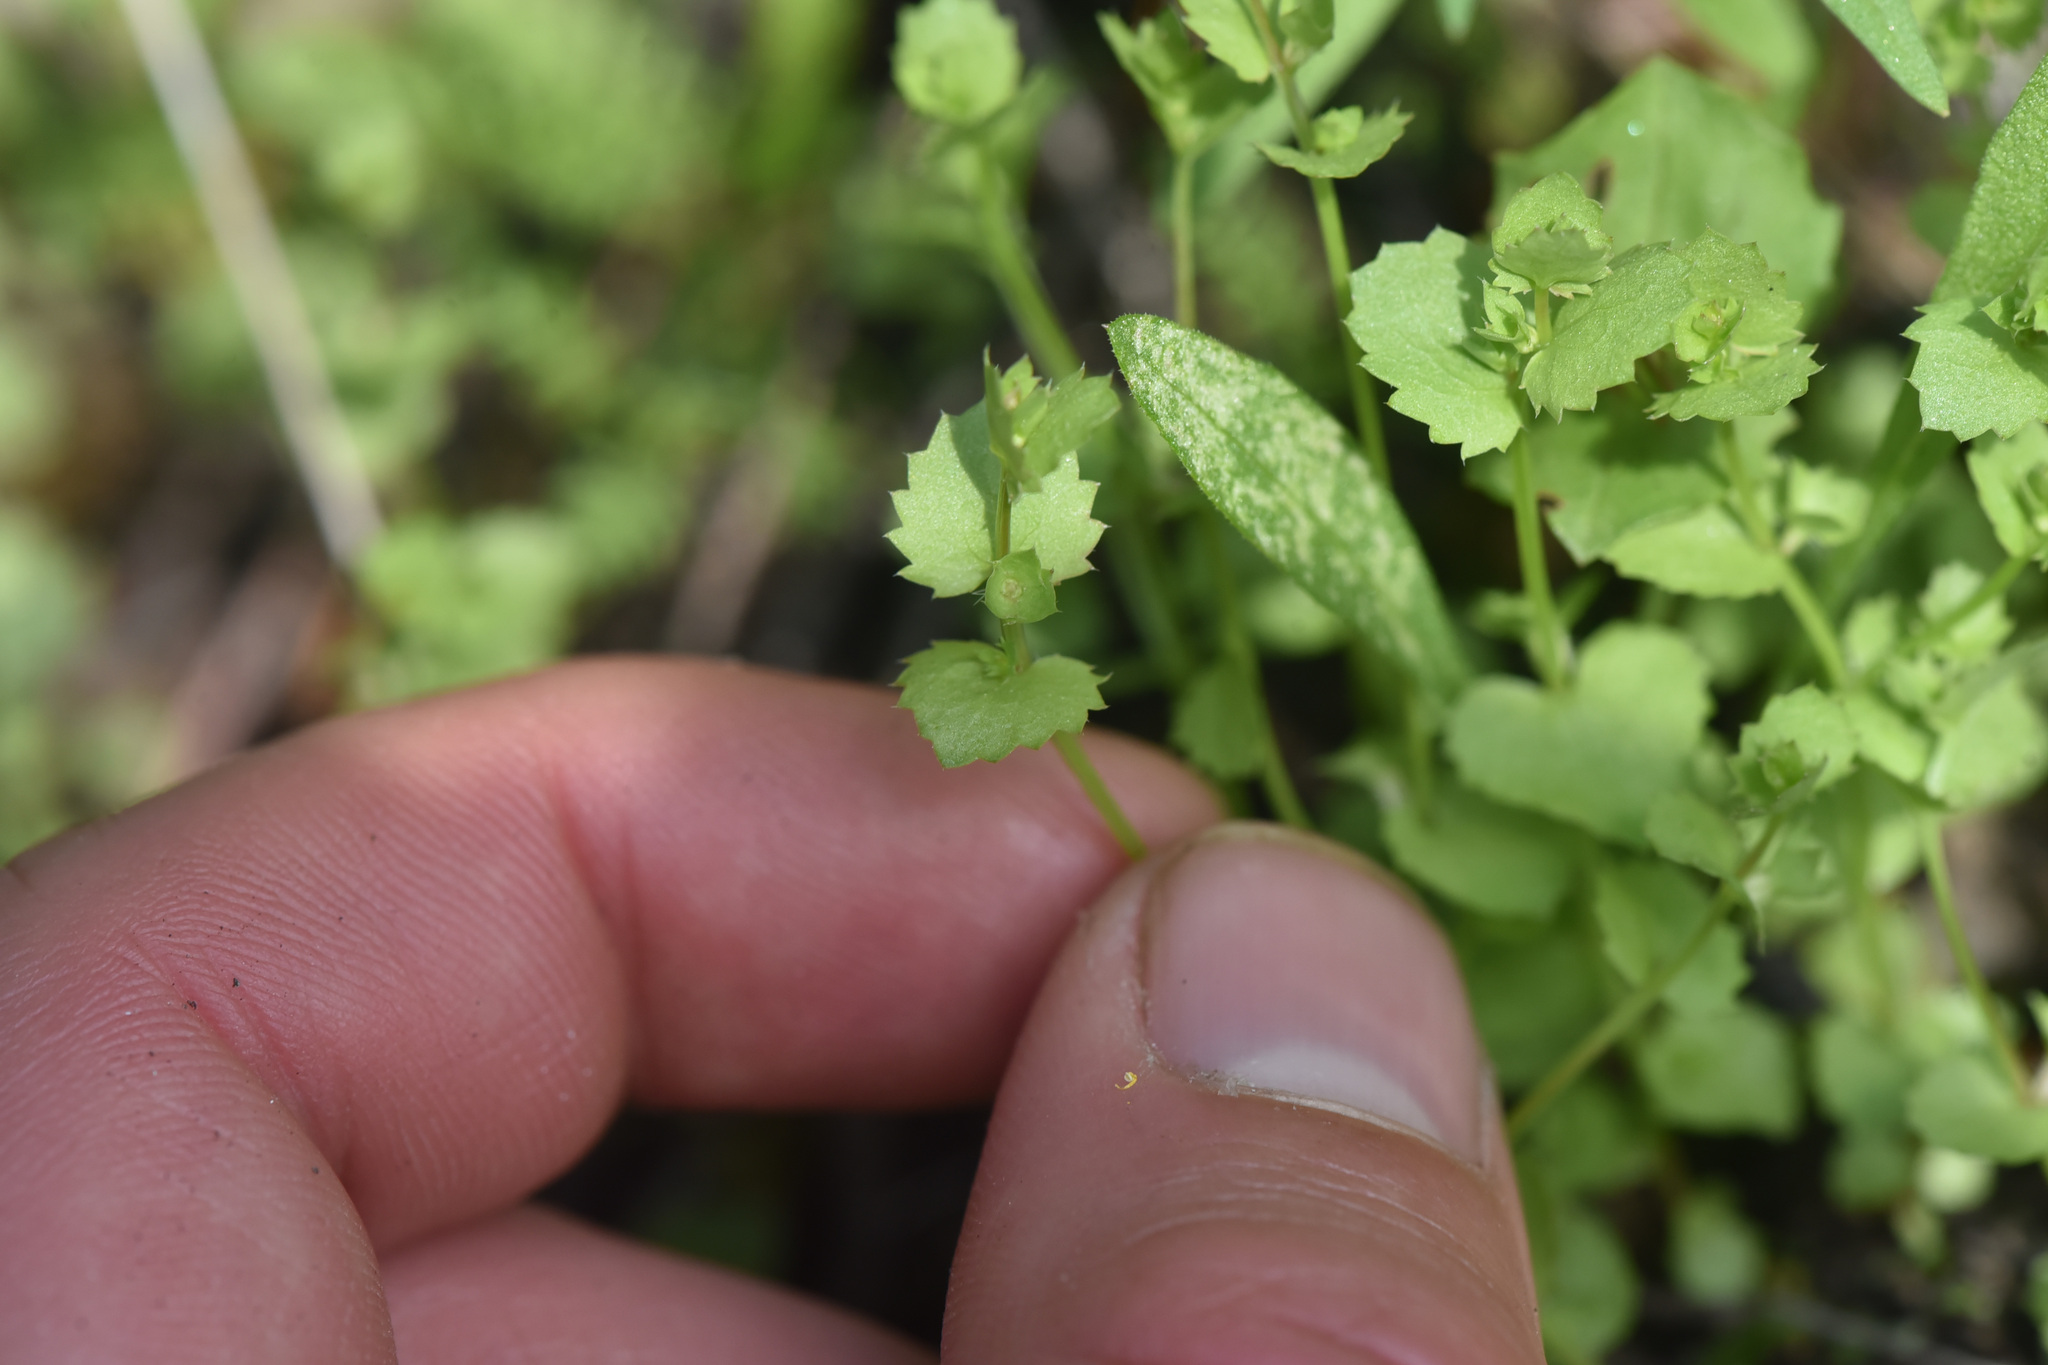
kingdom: Plantae
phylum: Tracheophyta
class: Magnoliopsida
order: Asterales
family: Campanulaceae
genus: Heterocodon
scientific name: Heterocodon rariflorum
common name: Rareflower heterocodon
